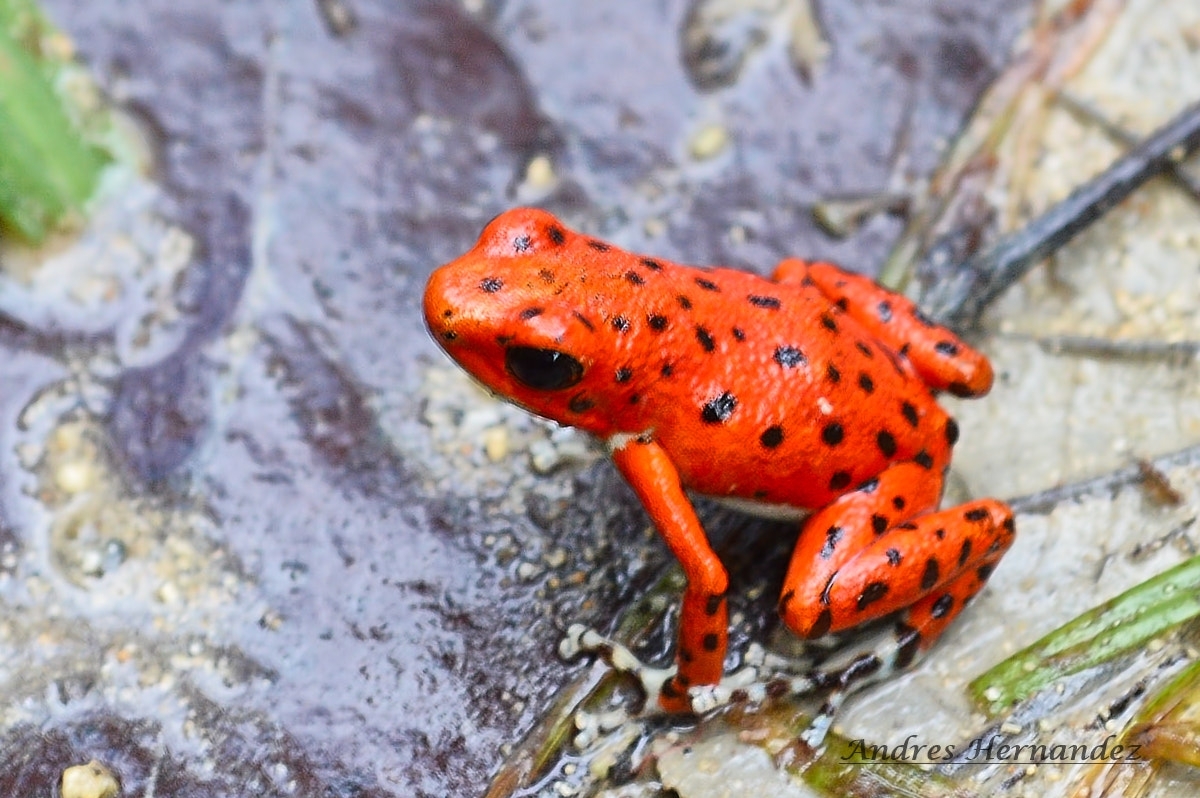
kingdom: Animalia
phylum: Chordata
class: Amphibia
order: Anura
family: Dendrobatidae
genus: Oophaga
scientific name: Oophaga pumilio
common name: Flaming poison frog
